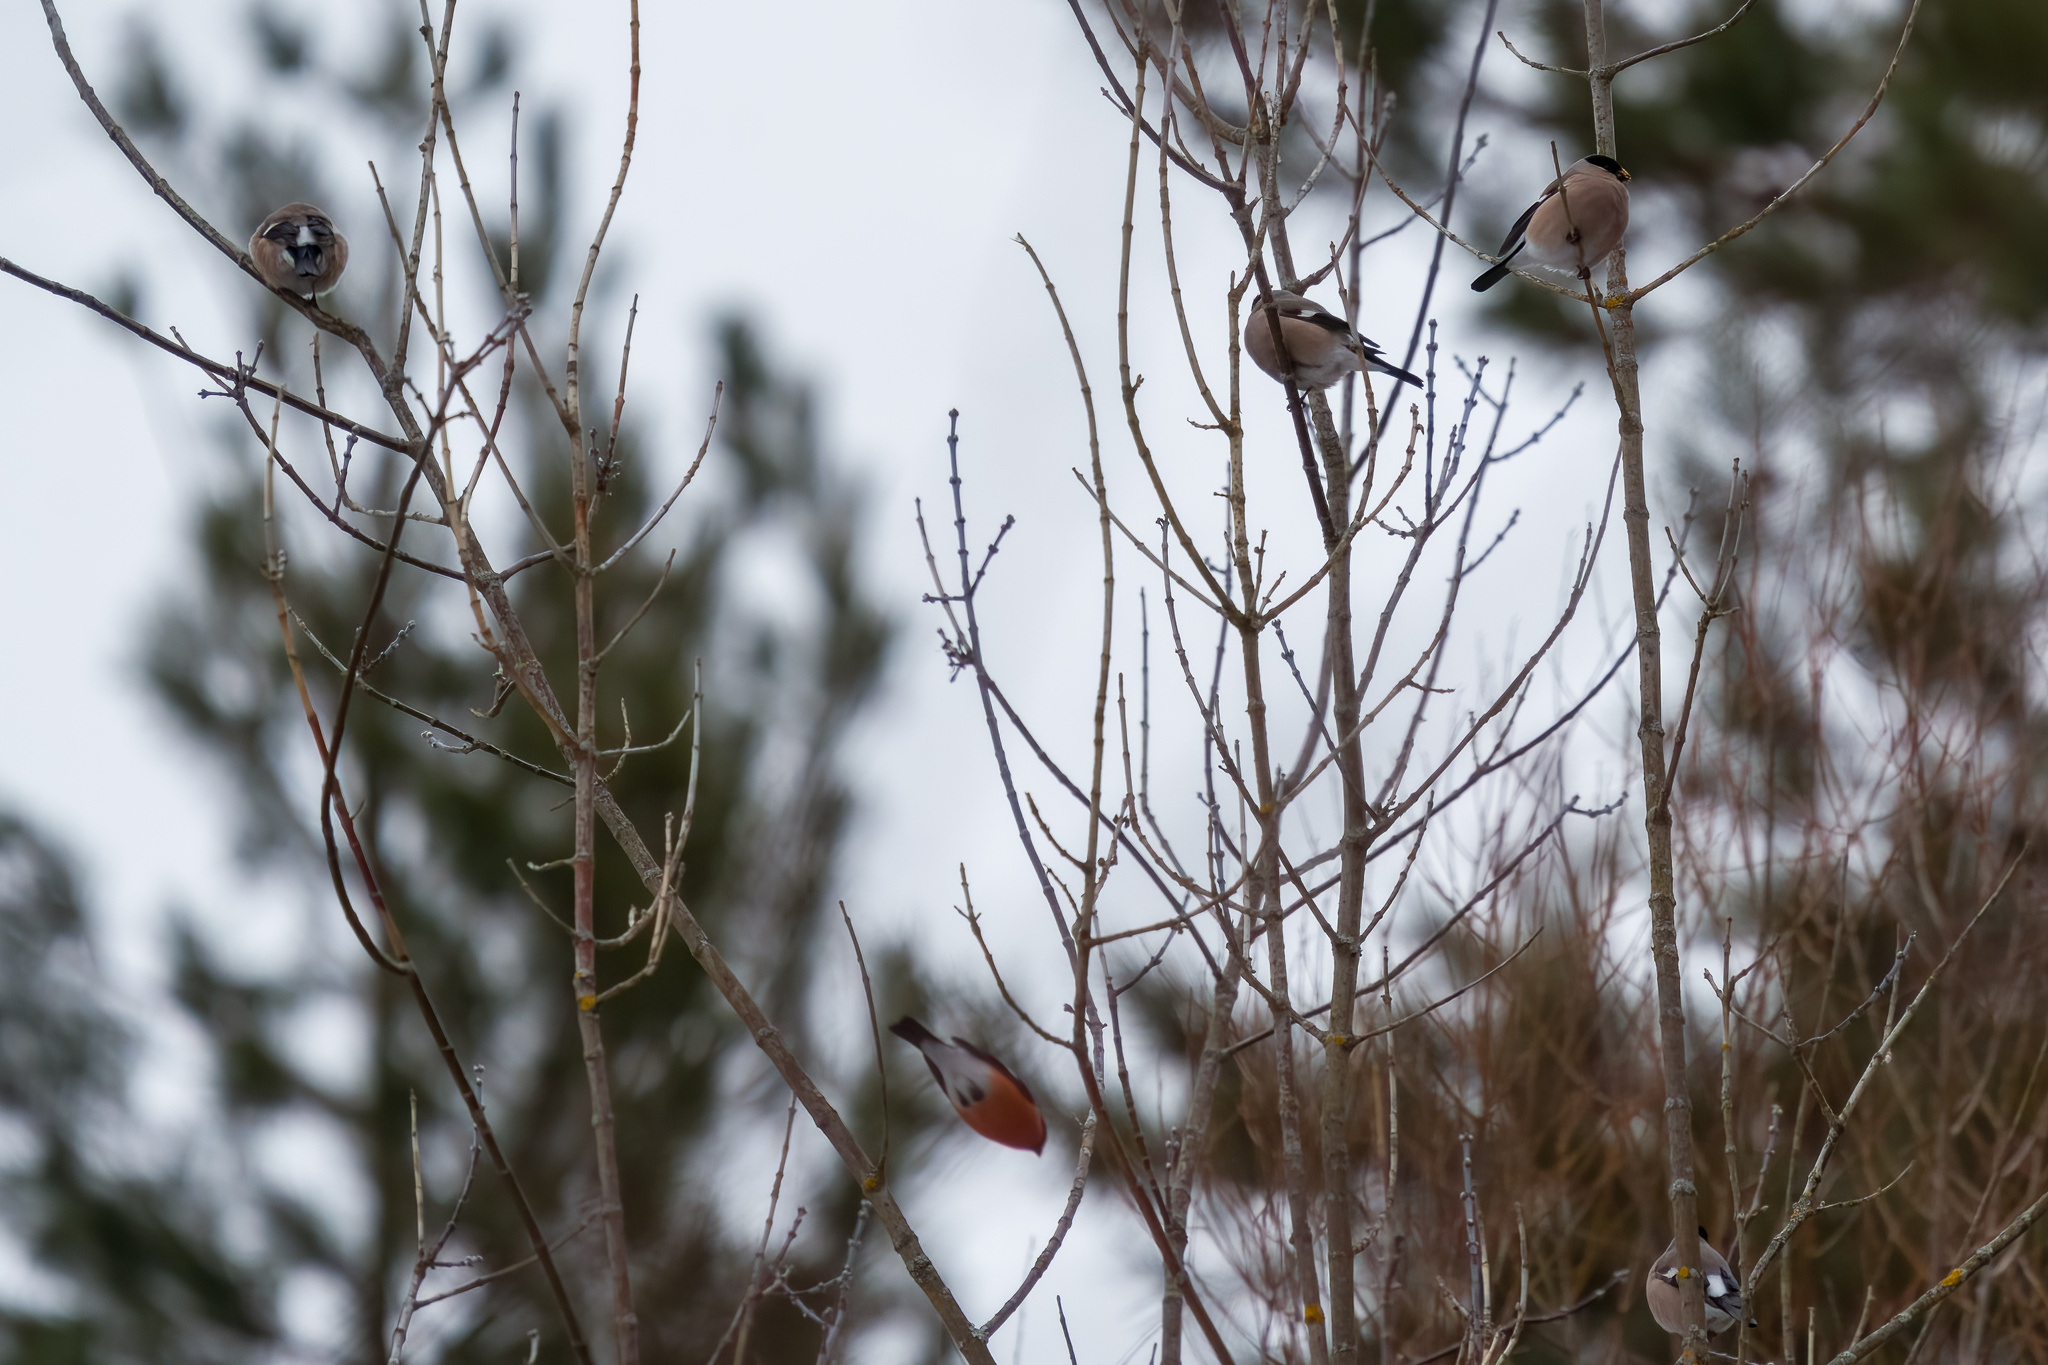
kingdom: Animalia
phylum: Chordata
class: Aves
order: Passeriformes
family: Fringillidae
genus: Pyrrhula
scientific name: Pyrrhula pyrrhula
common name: Eurasian bullfinch
